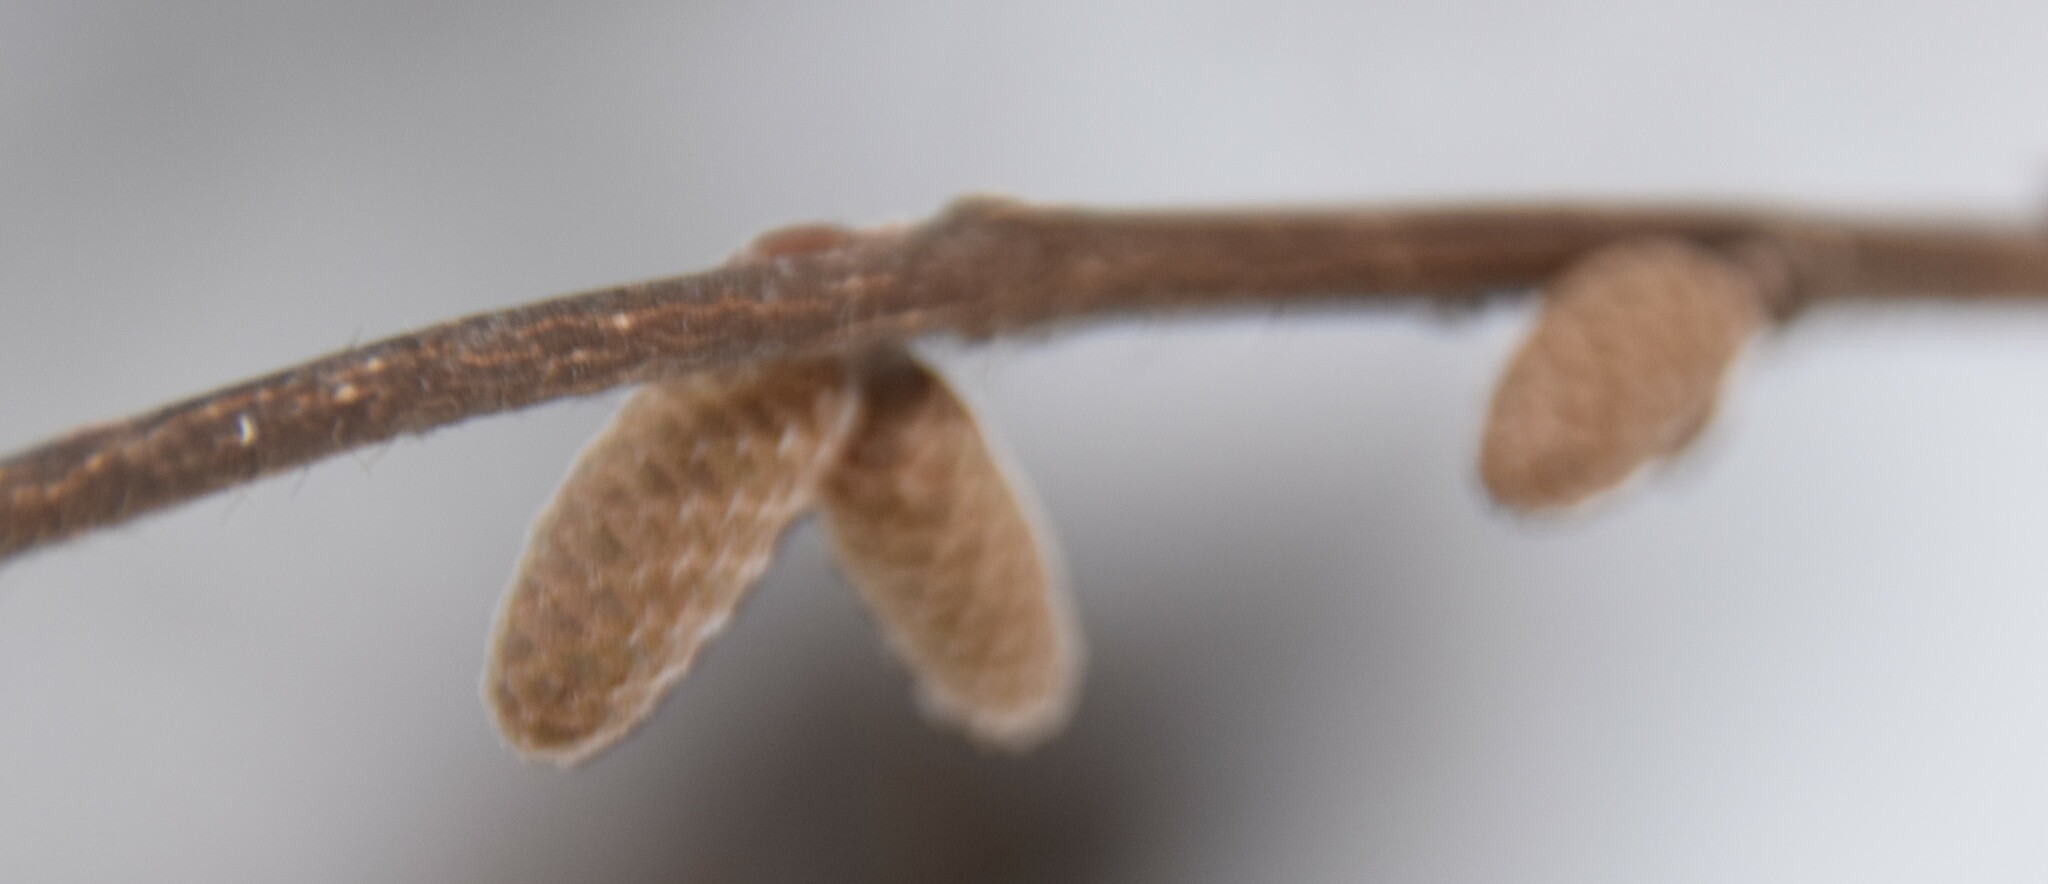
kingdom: Plantae
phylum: Tracheophyta
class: Magnoliopsida
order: Fagales
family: Betulaceae
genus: Corylus
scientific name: Corylus cornuta
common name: Beaked hazel
